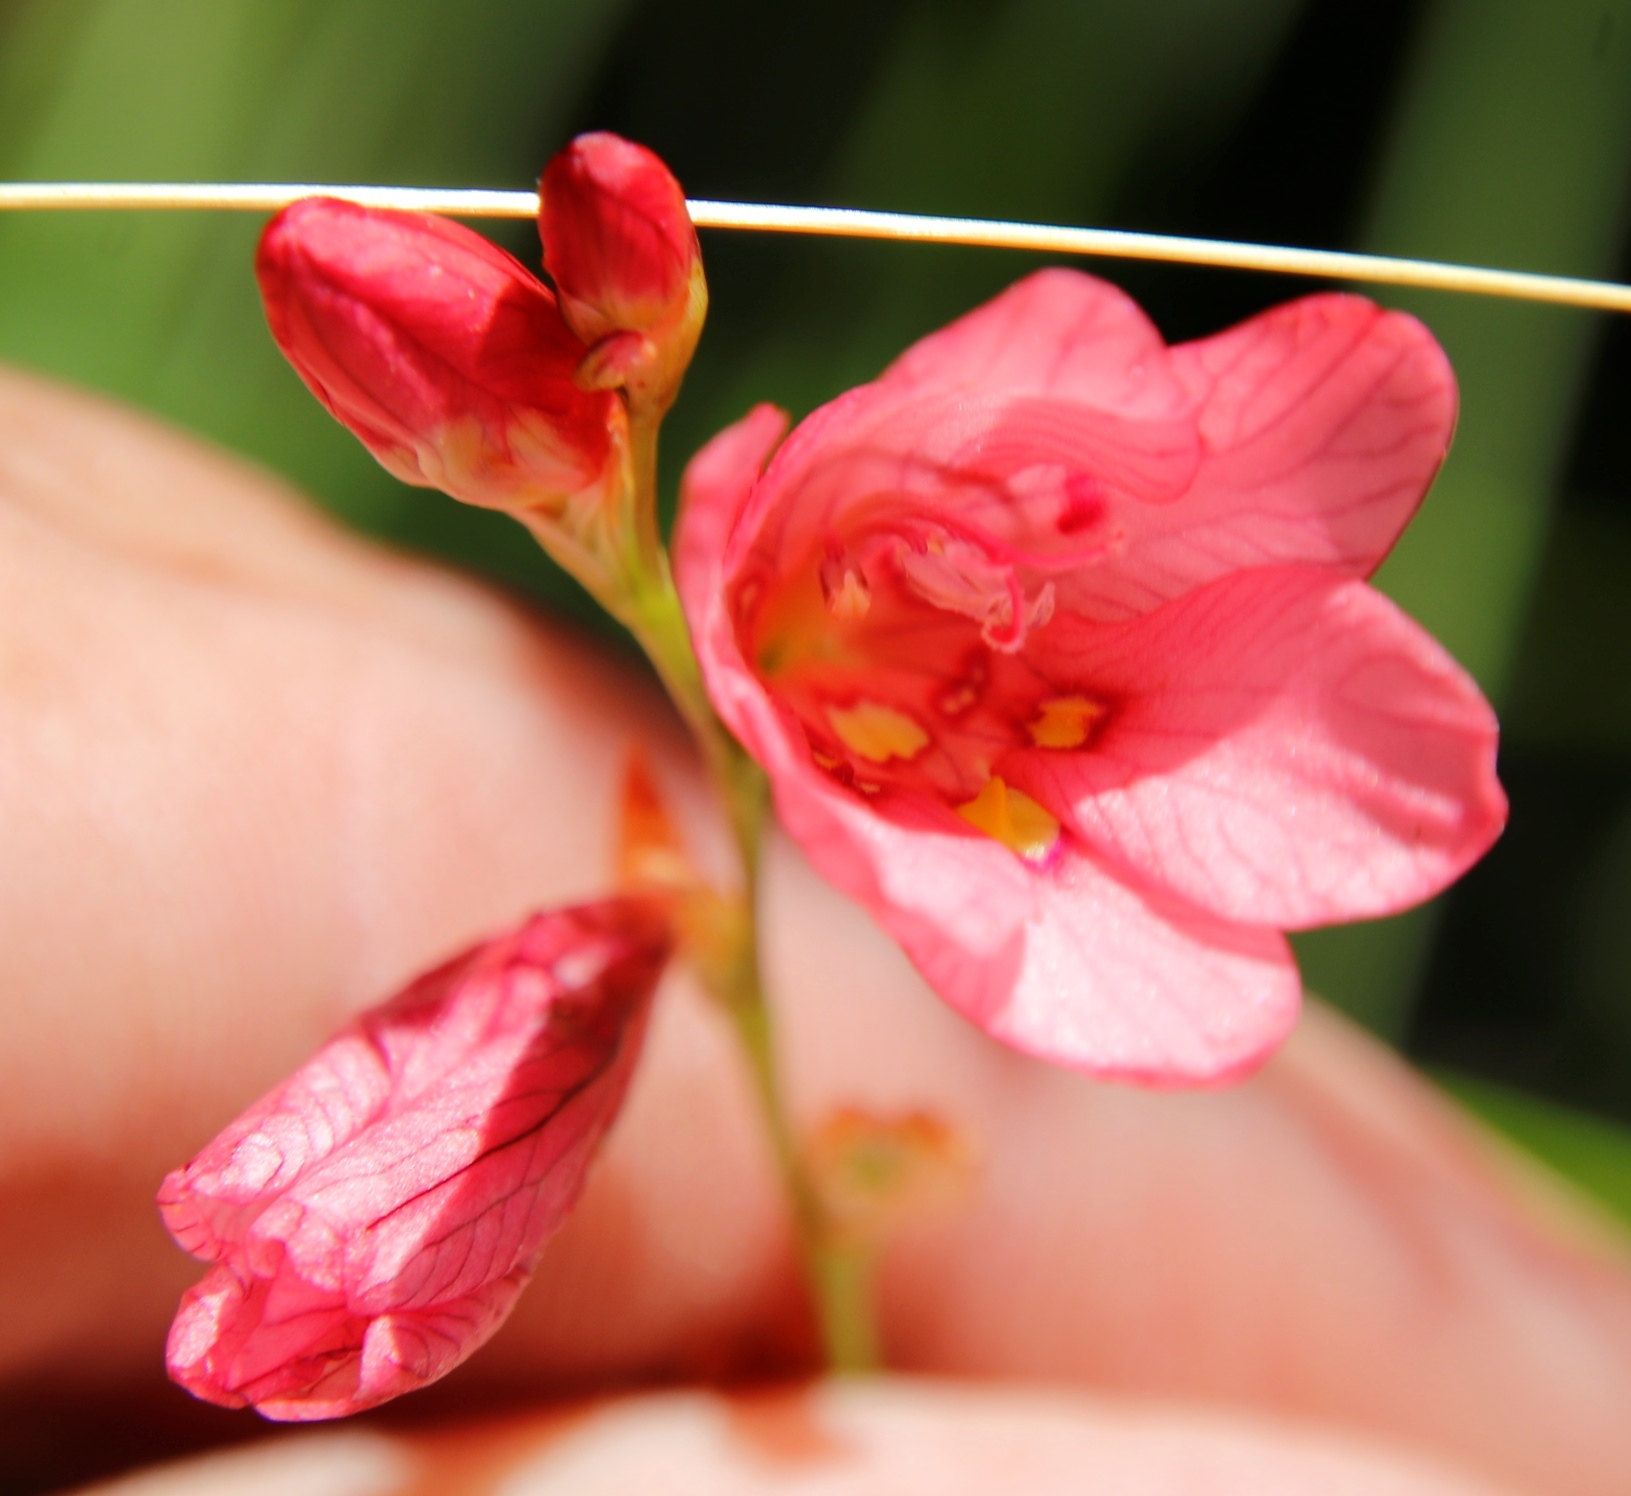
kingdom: Plantae
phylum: Tracheophyta
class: Liliopsida
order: Asparagales
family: Iridaceae
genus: Tritonia
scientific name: Tritonia drakensbergensis
